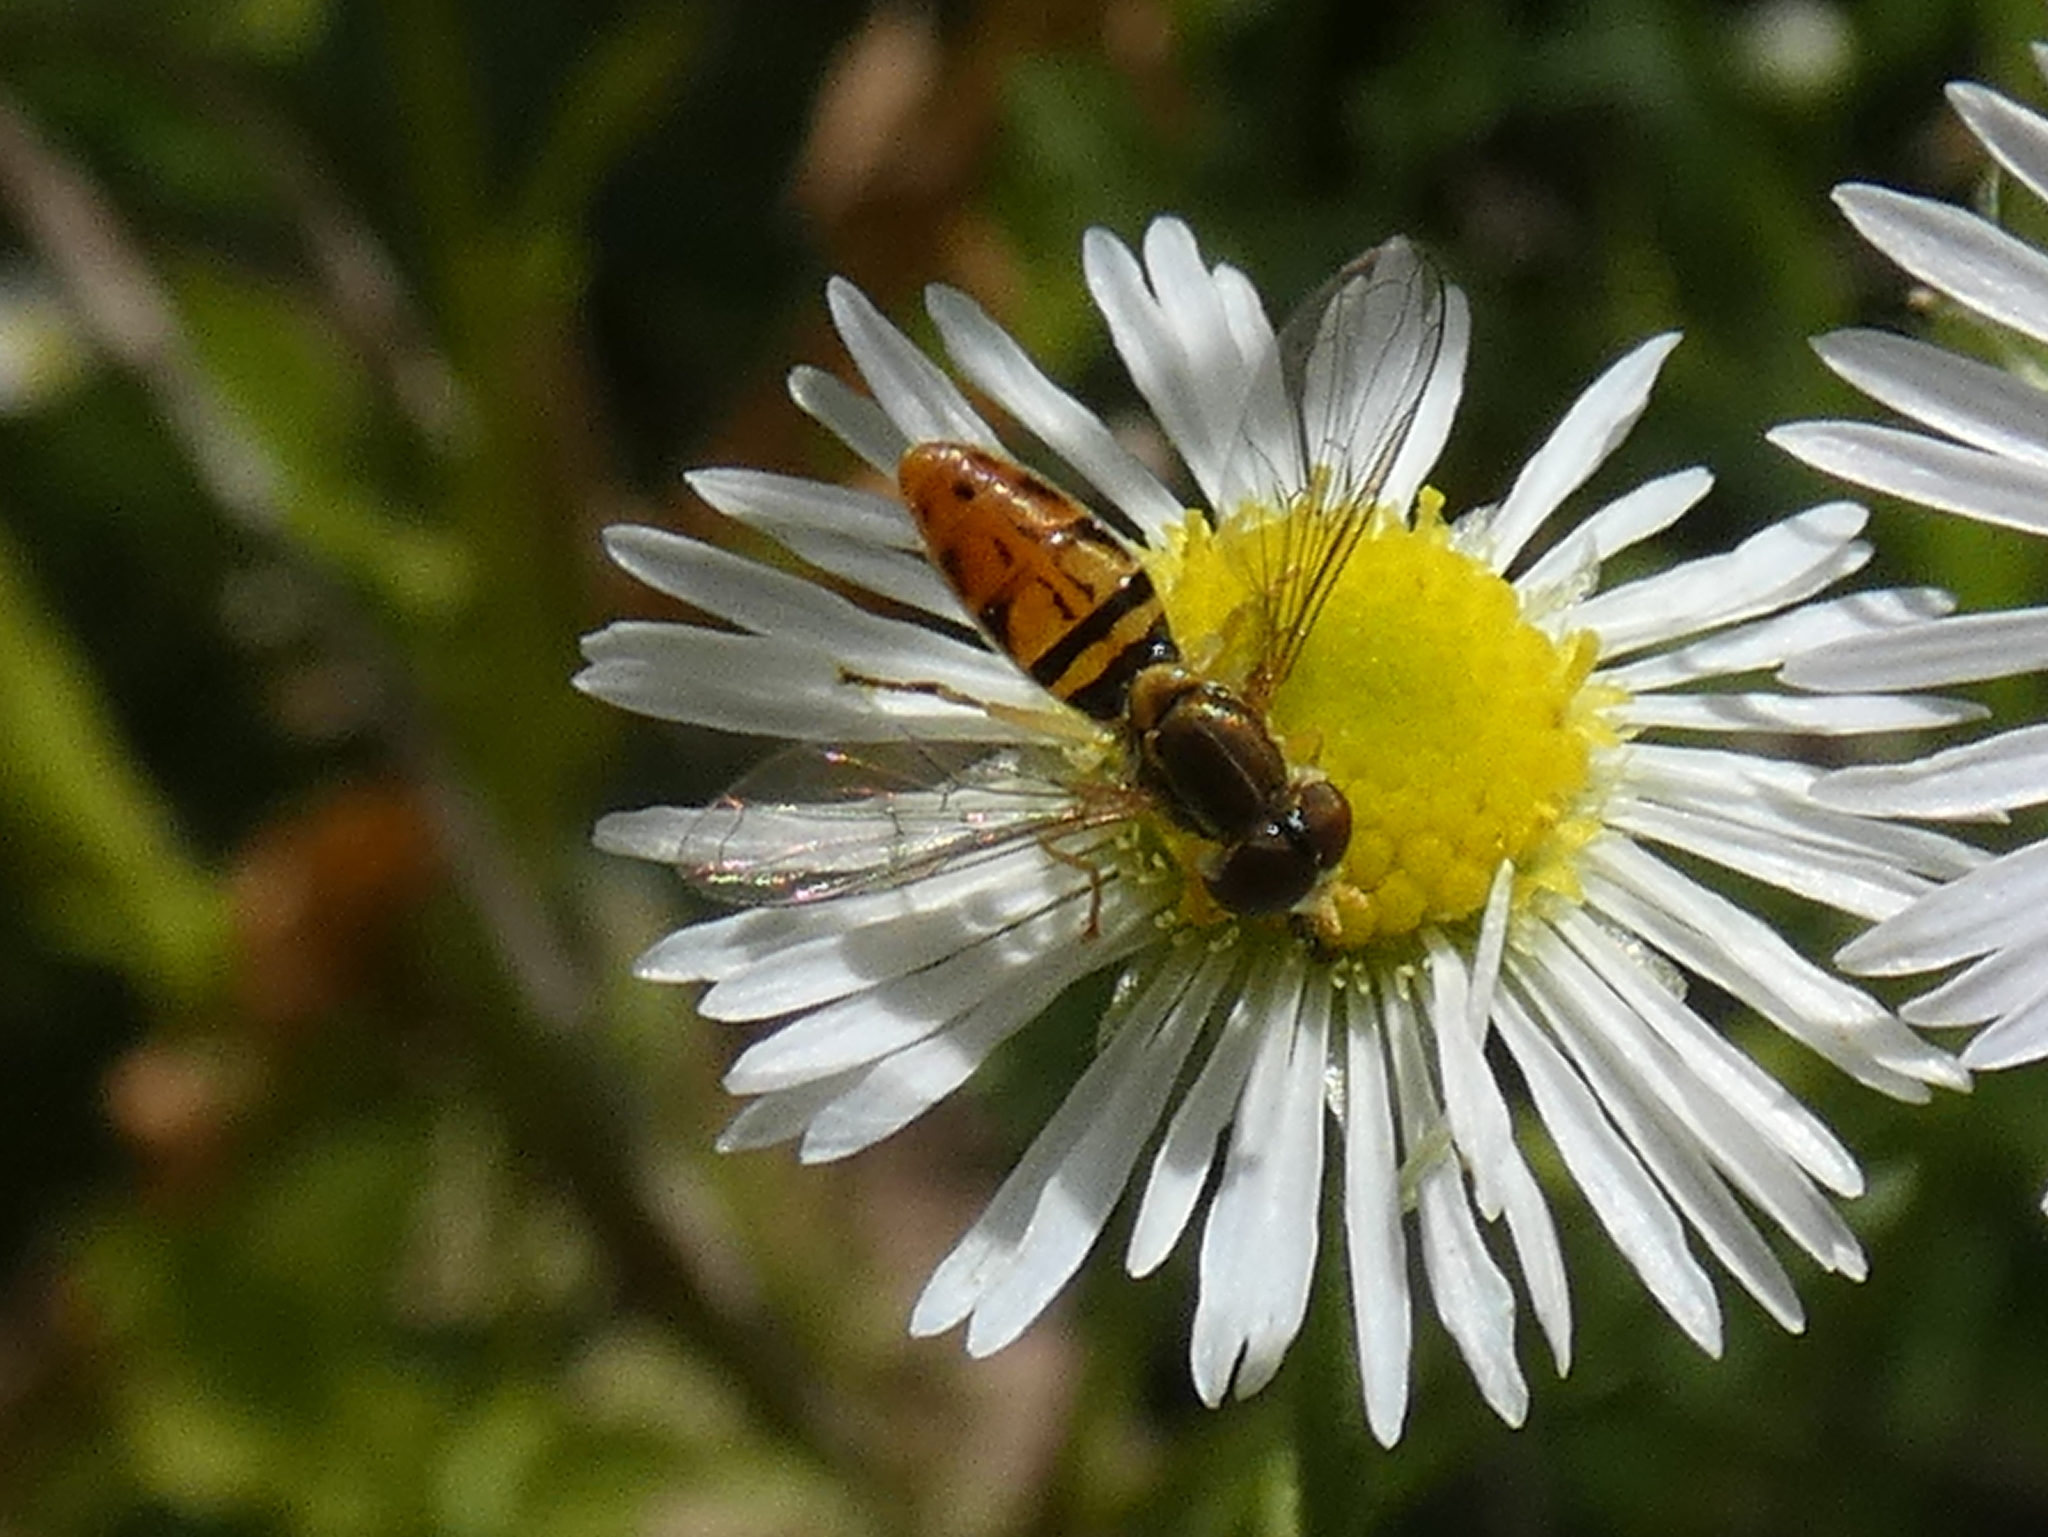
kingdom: Animalia
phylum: Arthropoda
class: Insecta
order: Diptera
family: Syrphidae
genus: Toxomerus
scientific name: Toxomerus marginatus
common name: Syrphid fly
